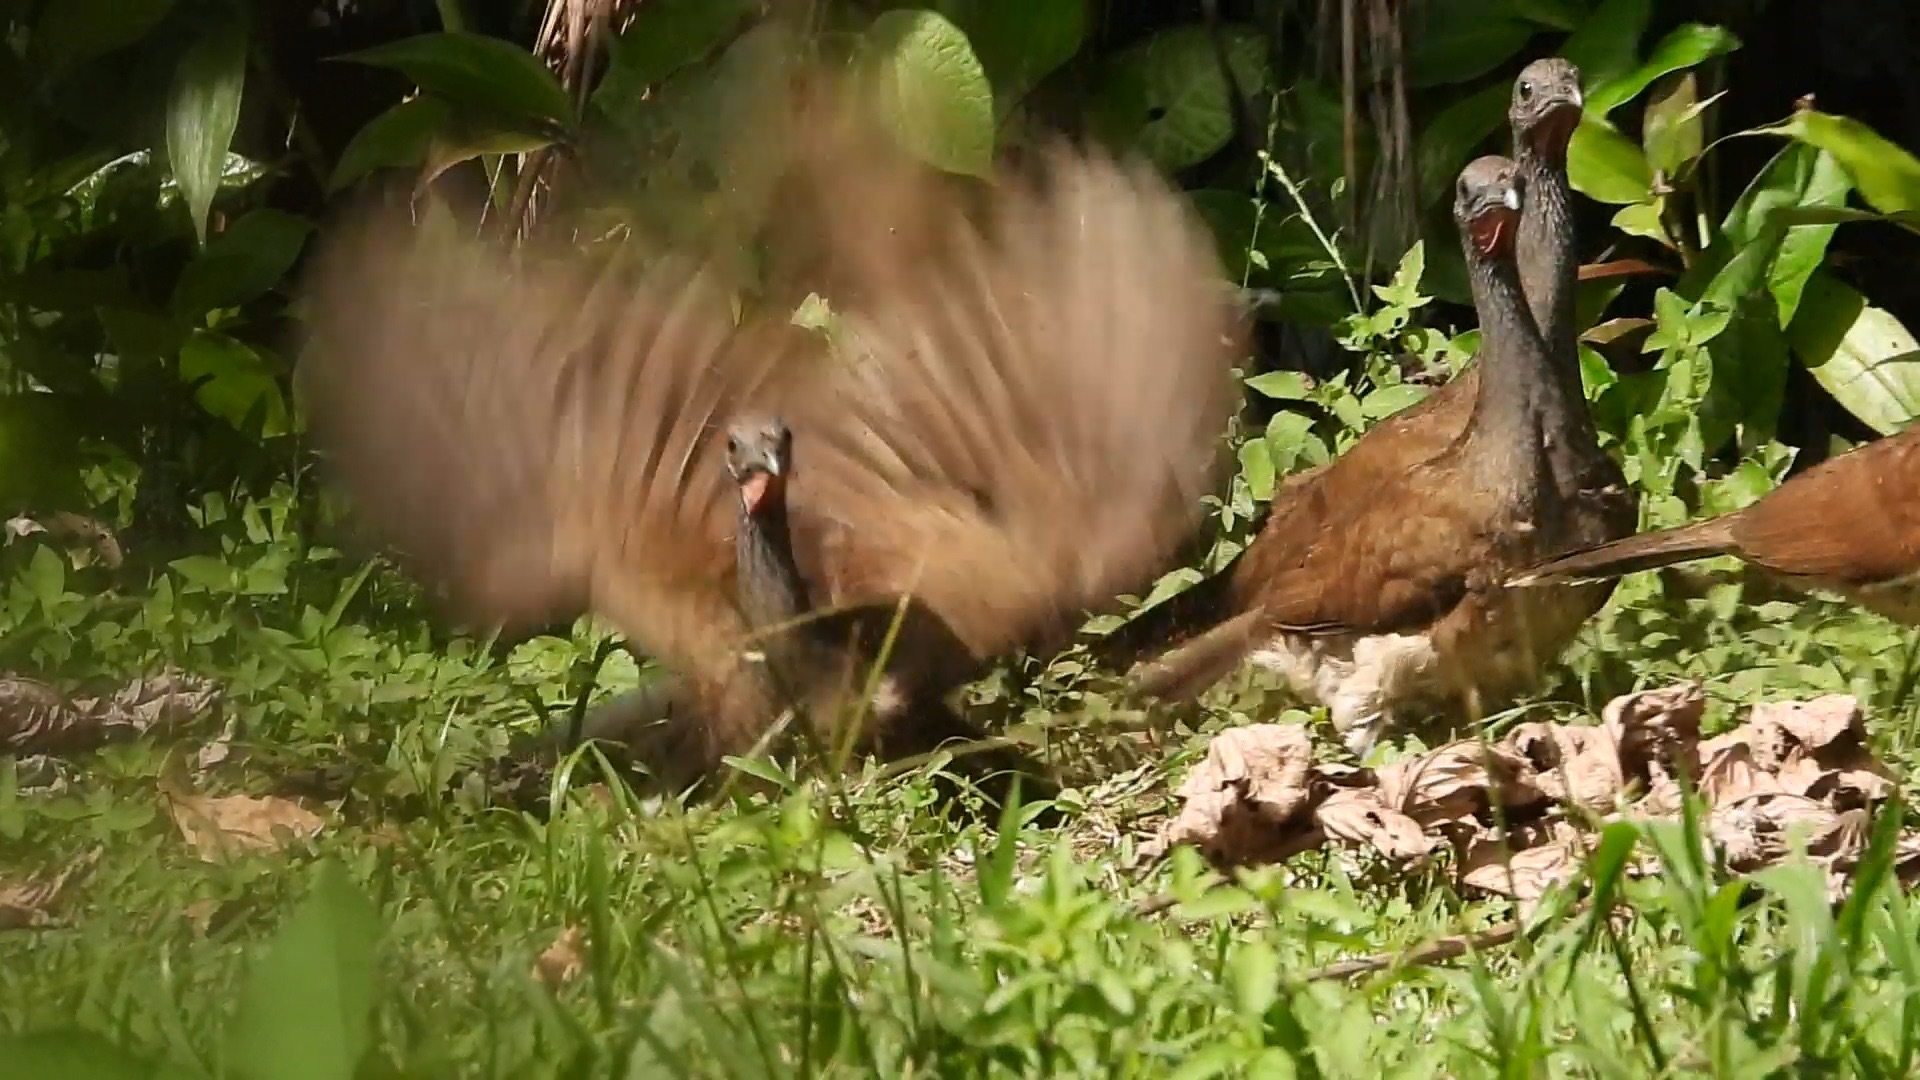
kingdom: Animalia
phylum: Chordata
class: Aves
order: Galliformes
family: Cracidae
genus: Ortalis
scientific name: Ortalis leucogastra
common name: White-bellied chachalaca
